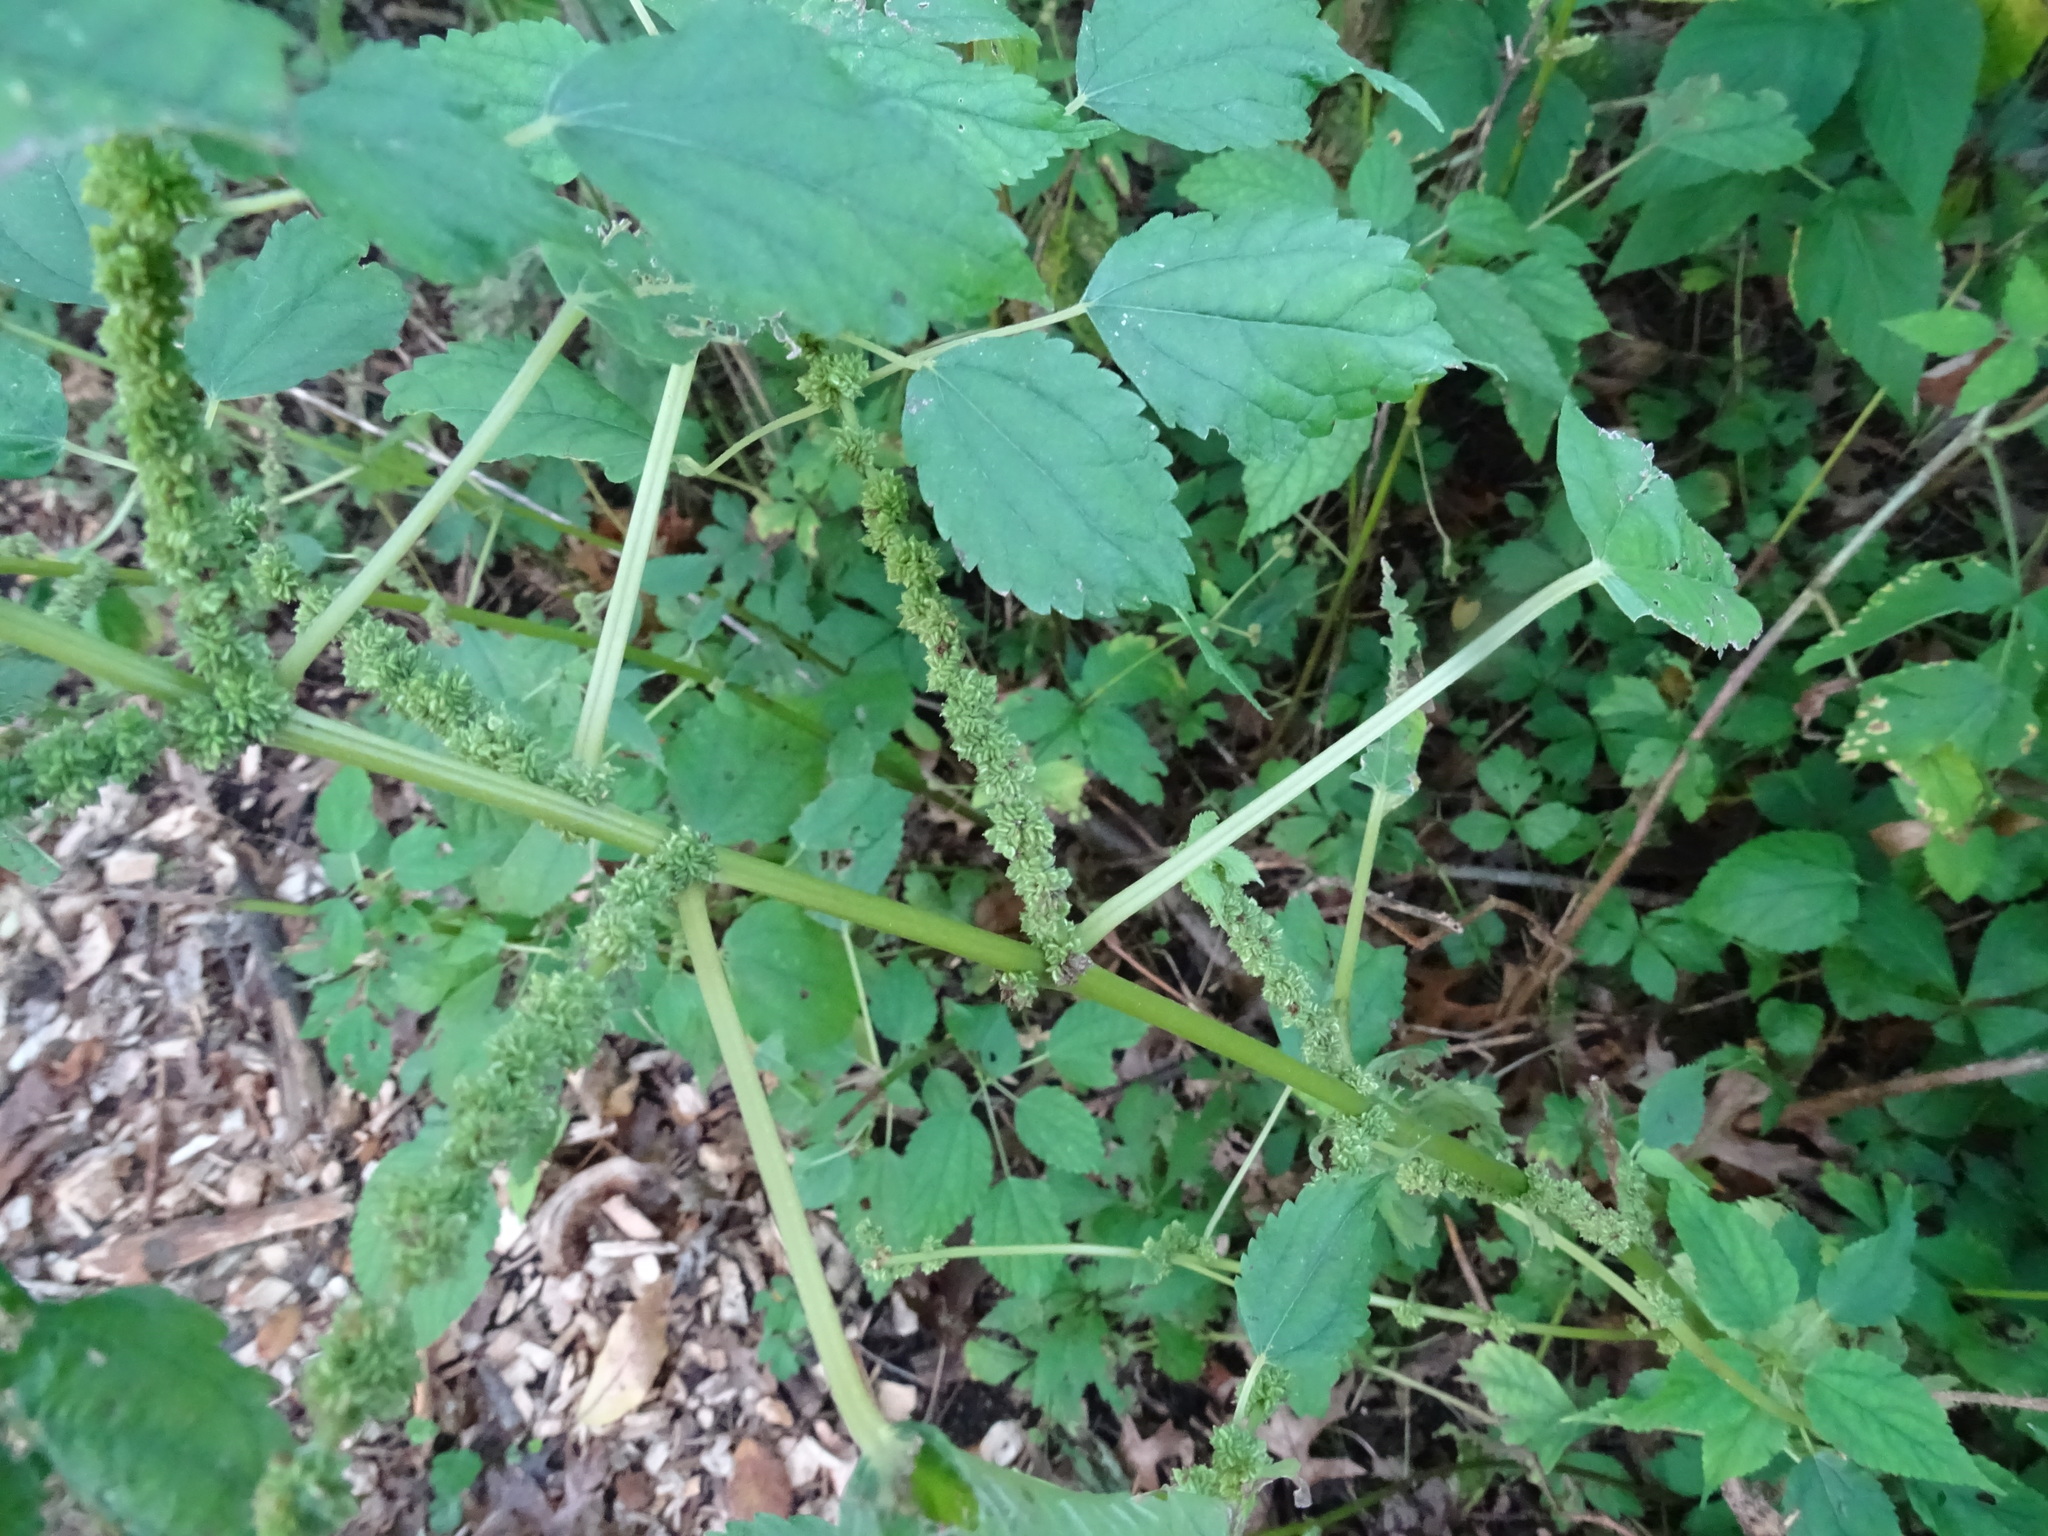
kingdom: Plantae
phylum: Tracheophyta
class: Magnoliopsida
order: Rosales
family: Urticaceae
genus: Boehmeria
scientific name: Boehmeria cylindrica
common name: Bog-hemp
